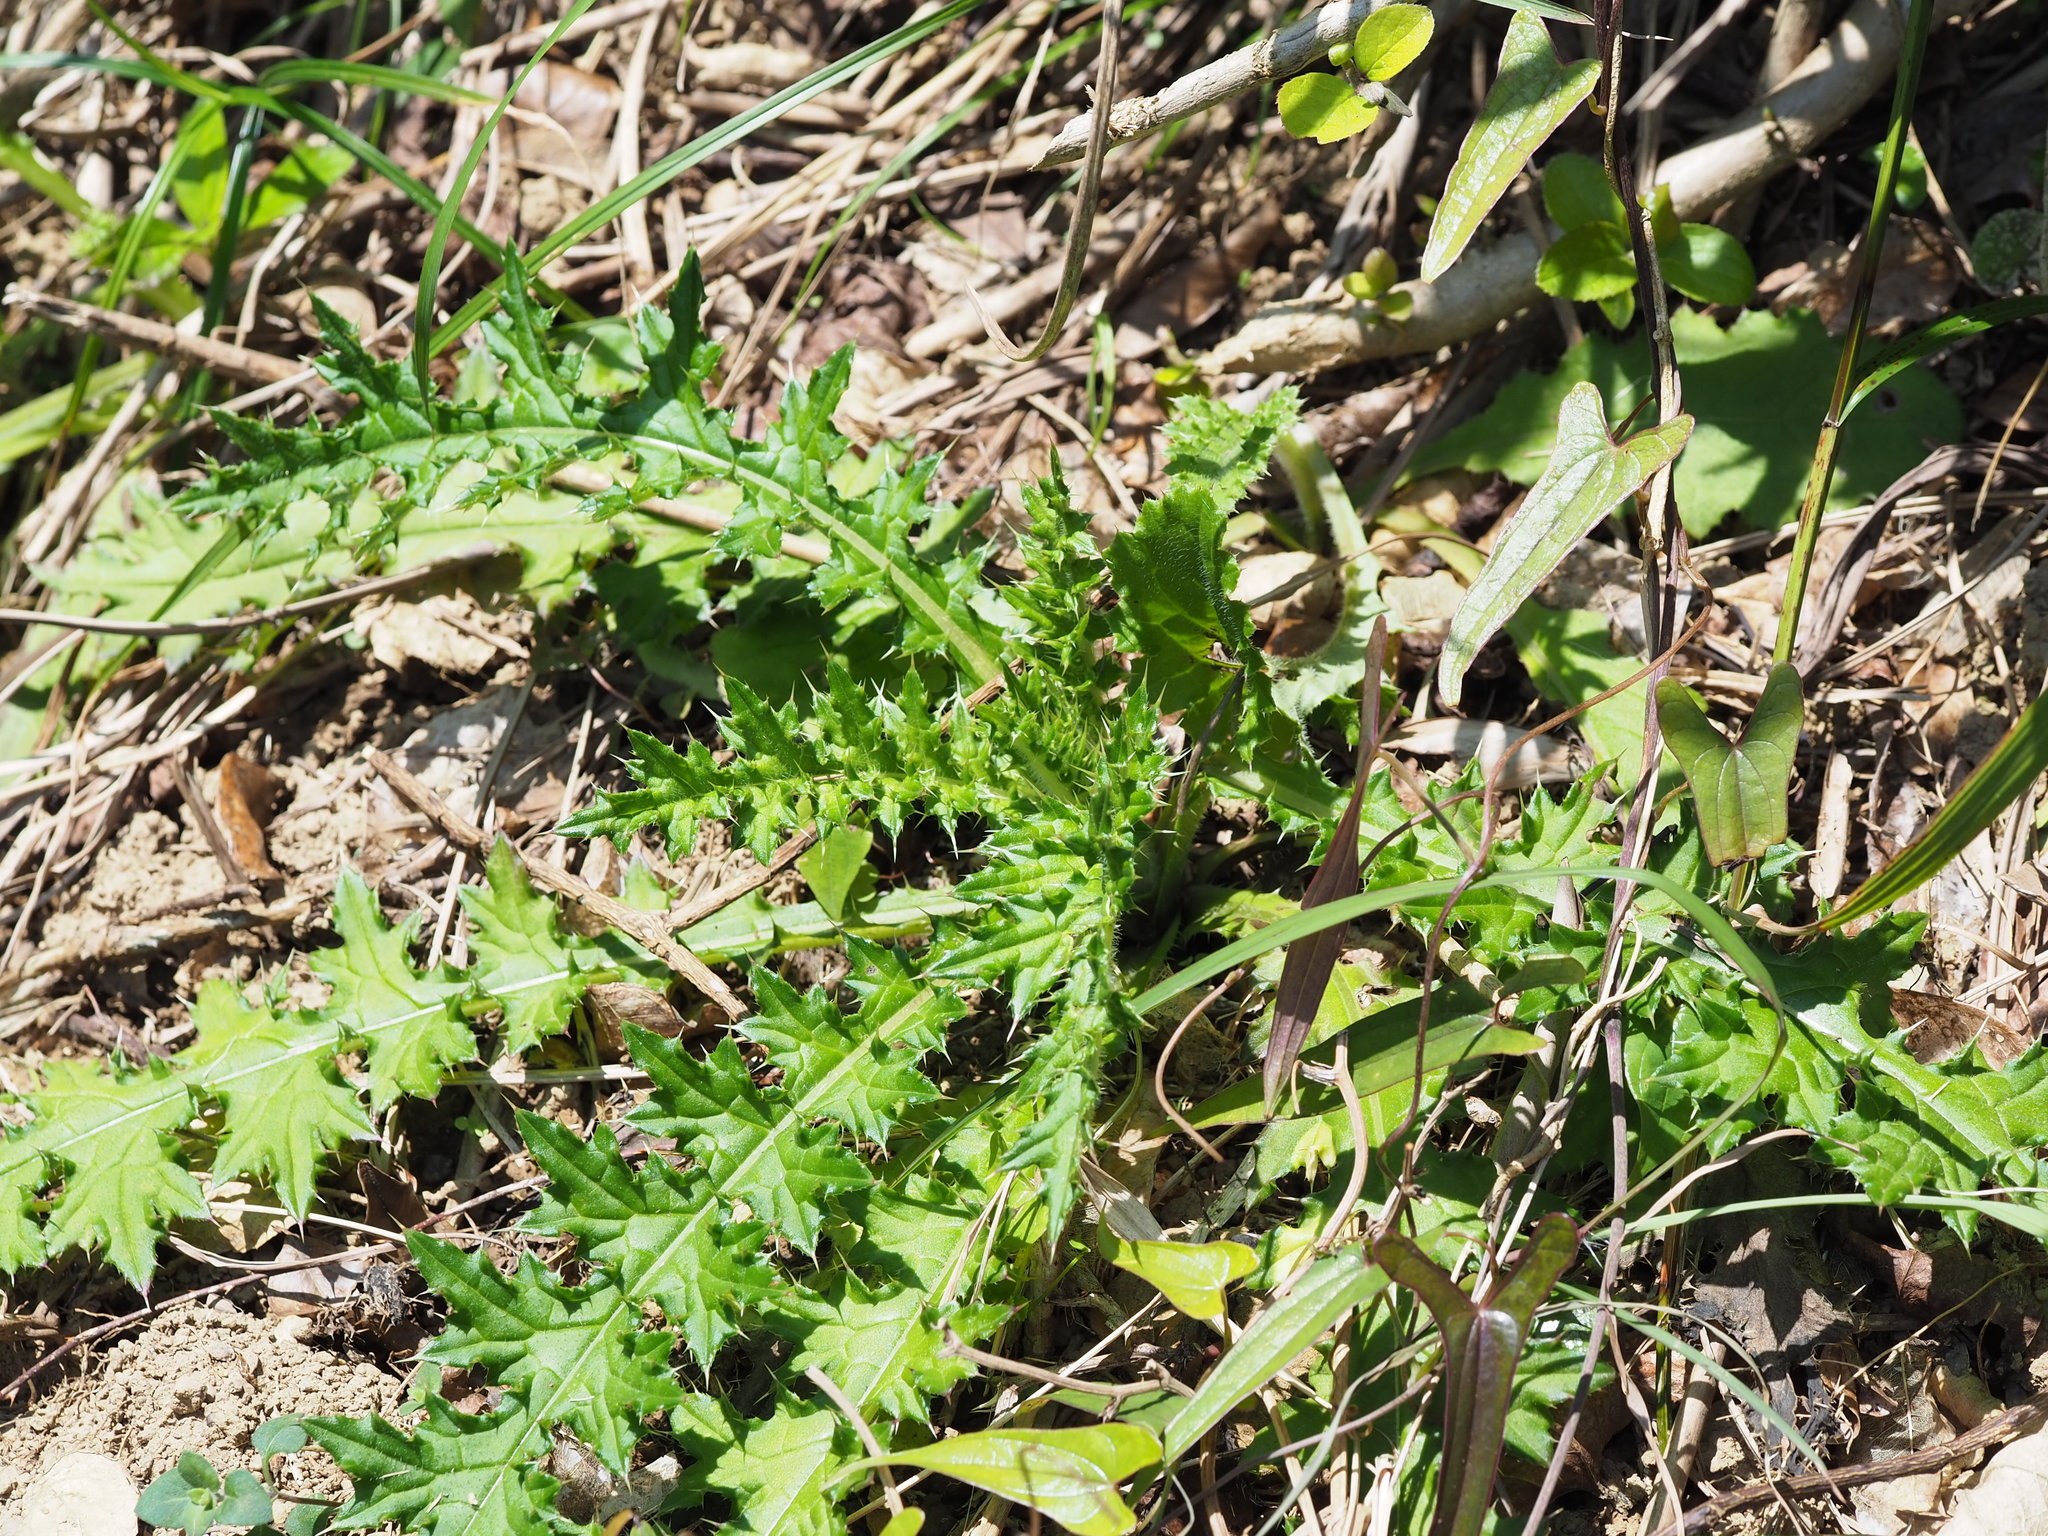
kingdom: Plantae
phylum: Tracheophyta
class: Magnoliopsida
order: Asterales
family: Asteraceae
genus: Cirsium
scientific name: Cirsium japonicum
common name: Japanese thistle
